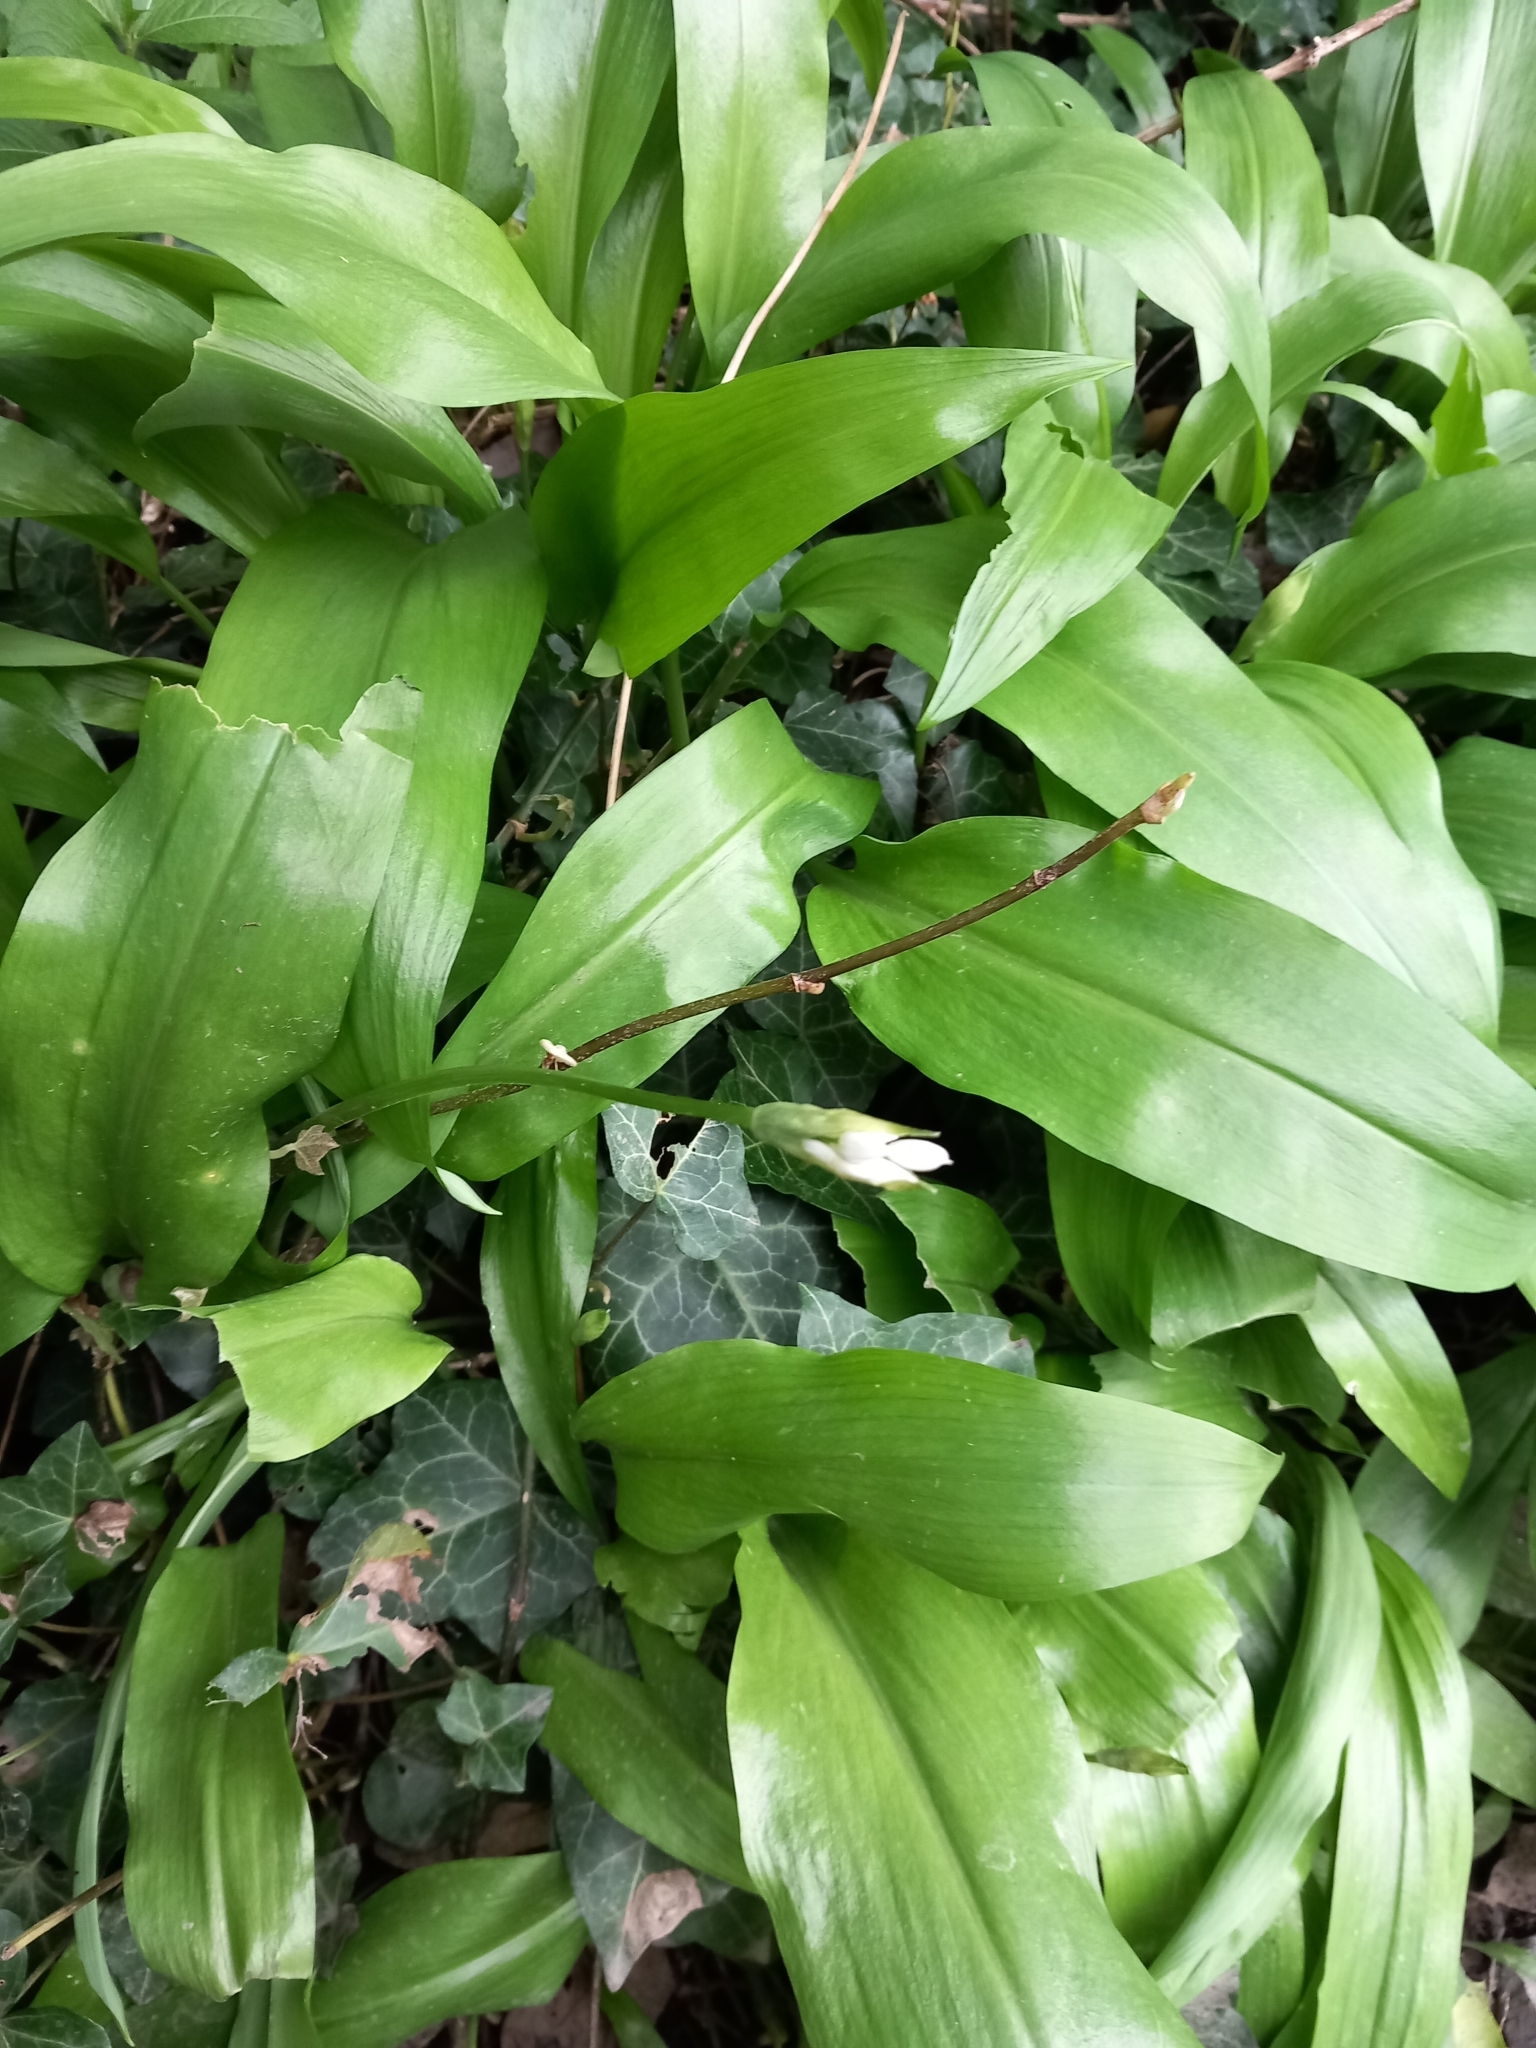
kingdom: Plantae
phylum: Tracheophyta
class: Liliopsida
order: Asparagales
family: Amaryllidaceae
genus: Allium
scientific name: Allium ursinum
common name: Ramsons
